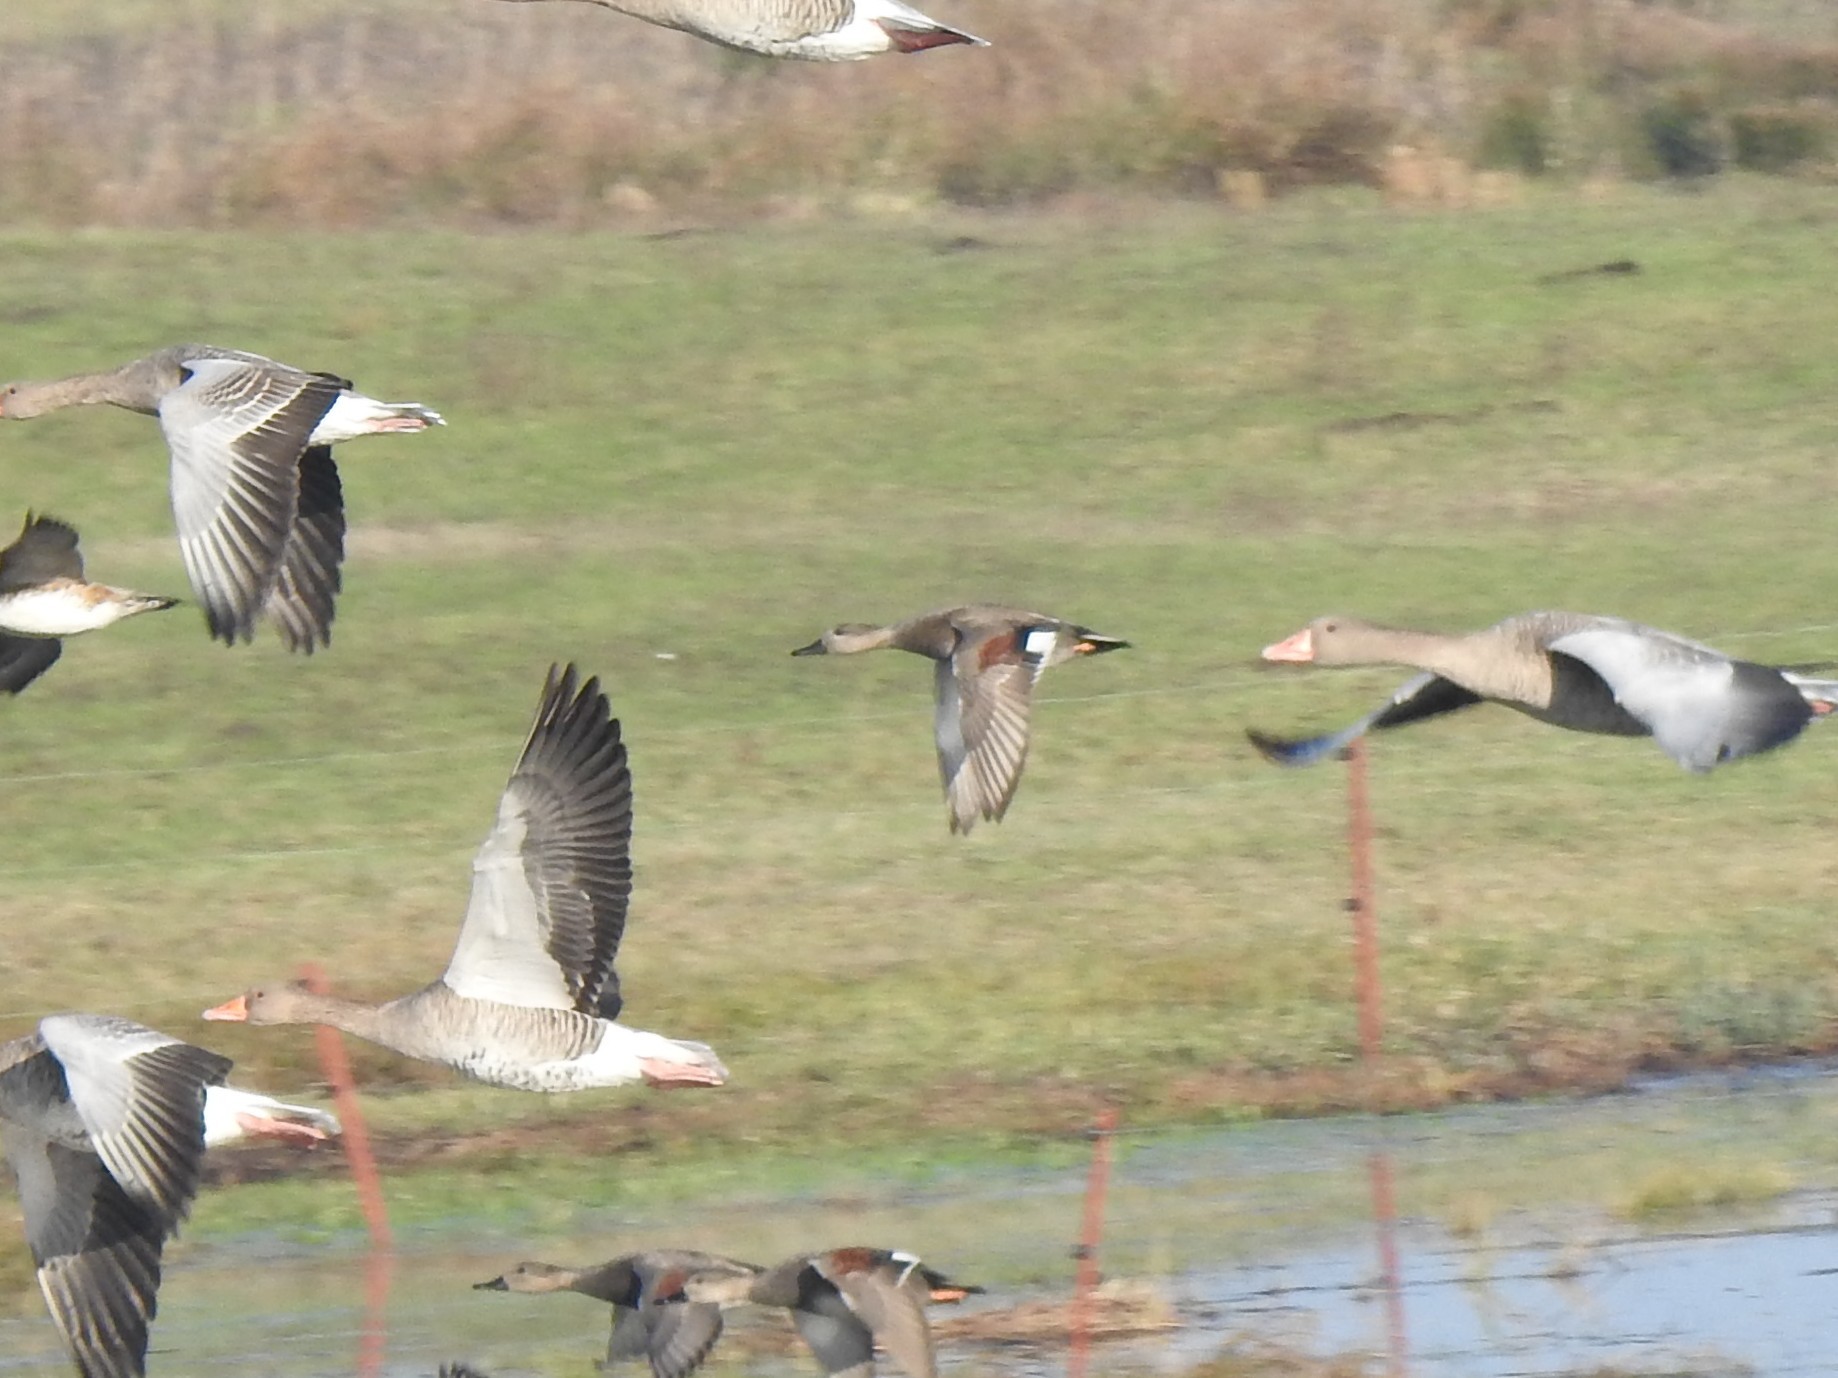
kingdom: Animalia
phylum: Chordata
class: Aves
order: Anseriformes
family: Anatidae
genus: Mareca
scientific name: Mareca strepera
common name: Gadwall
